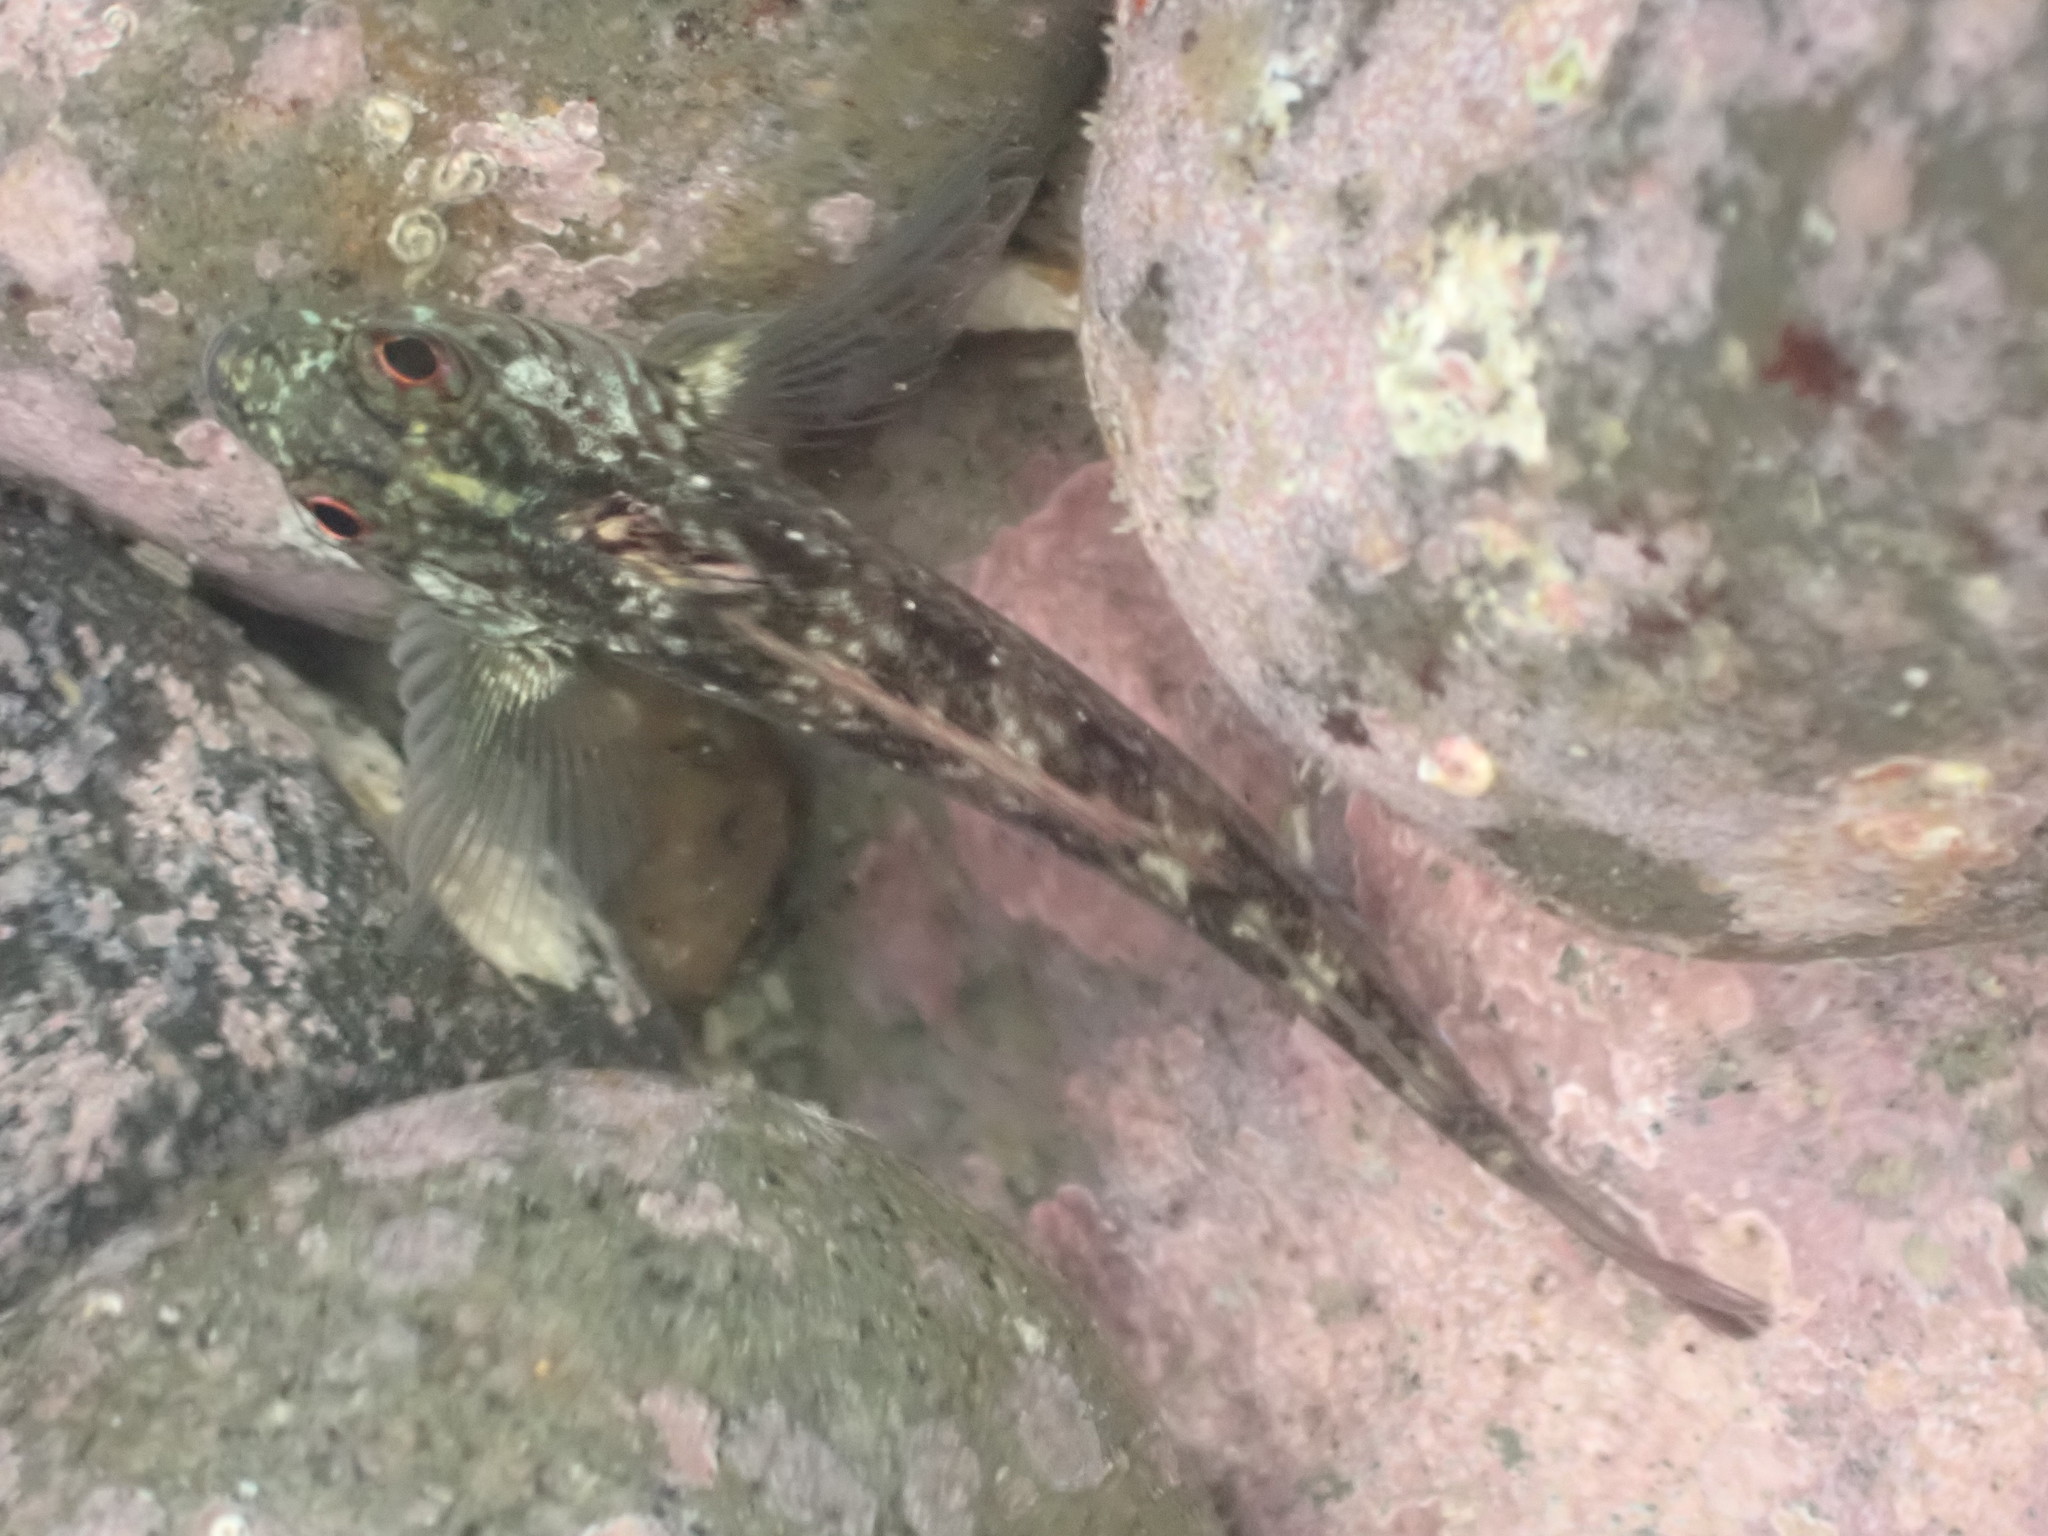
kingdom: Animalia
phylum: Chordata
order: Perciformes
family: Tripterygiidae
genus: Forsterygion
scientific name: Forsterygion lapillum
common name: Common triplefin
